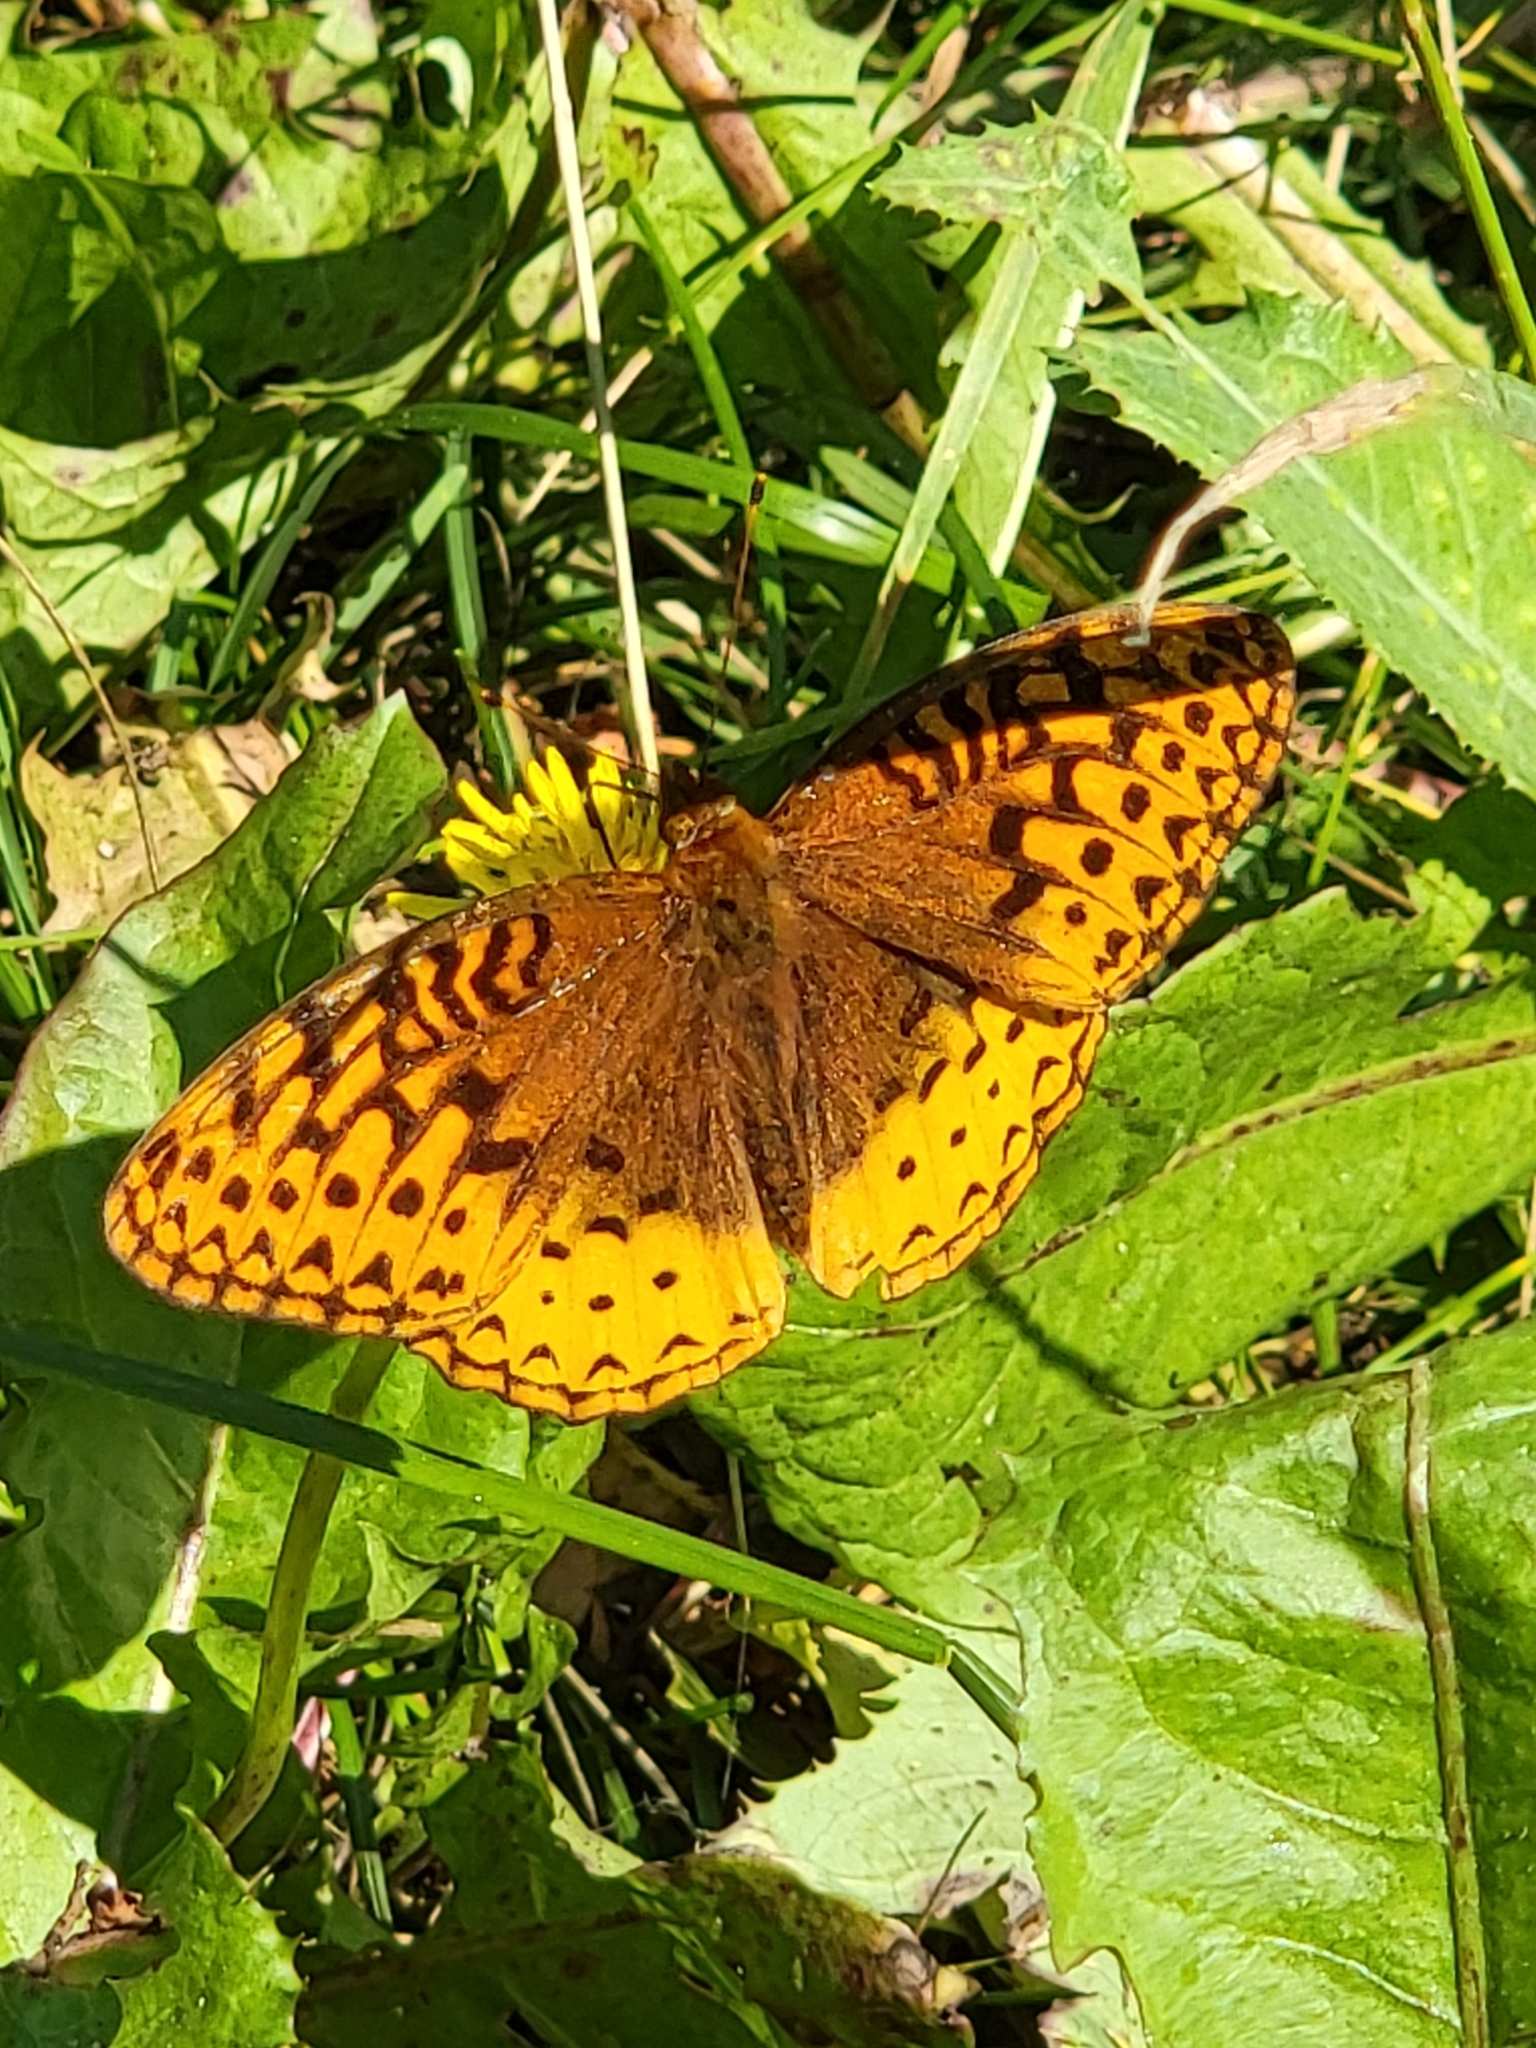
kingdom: Animalia
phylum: Arthropoda
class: Insecta
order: Lepidoptera
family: Nymphalidae
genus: Speyeria
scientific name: Speyeria cybele
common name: Great spangled fritillary
